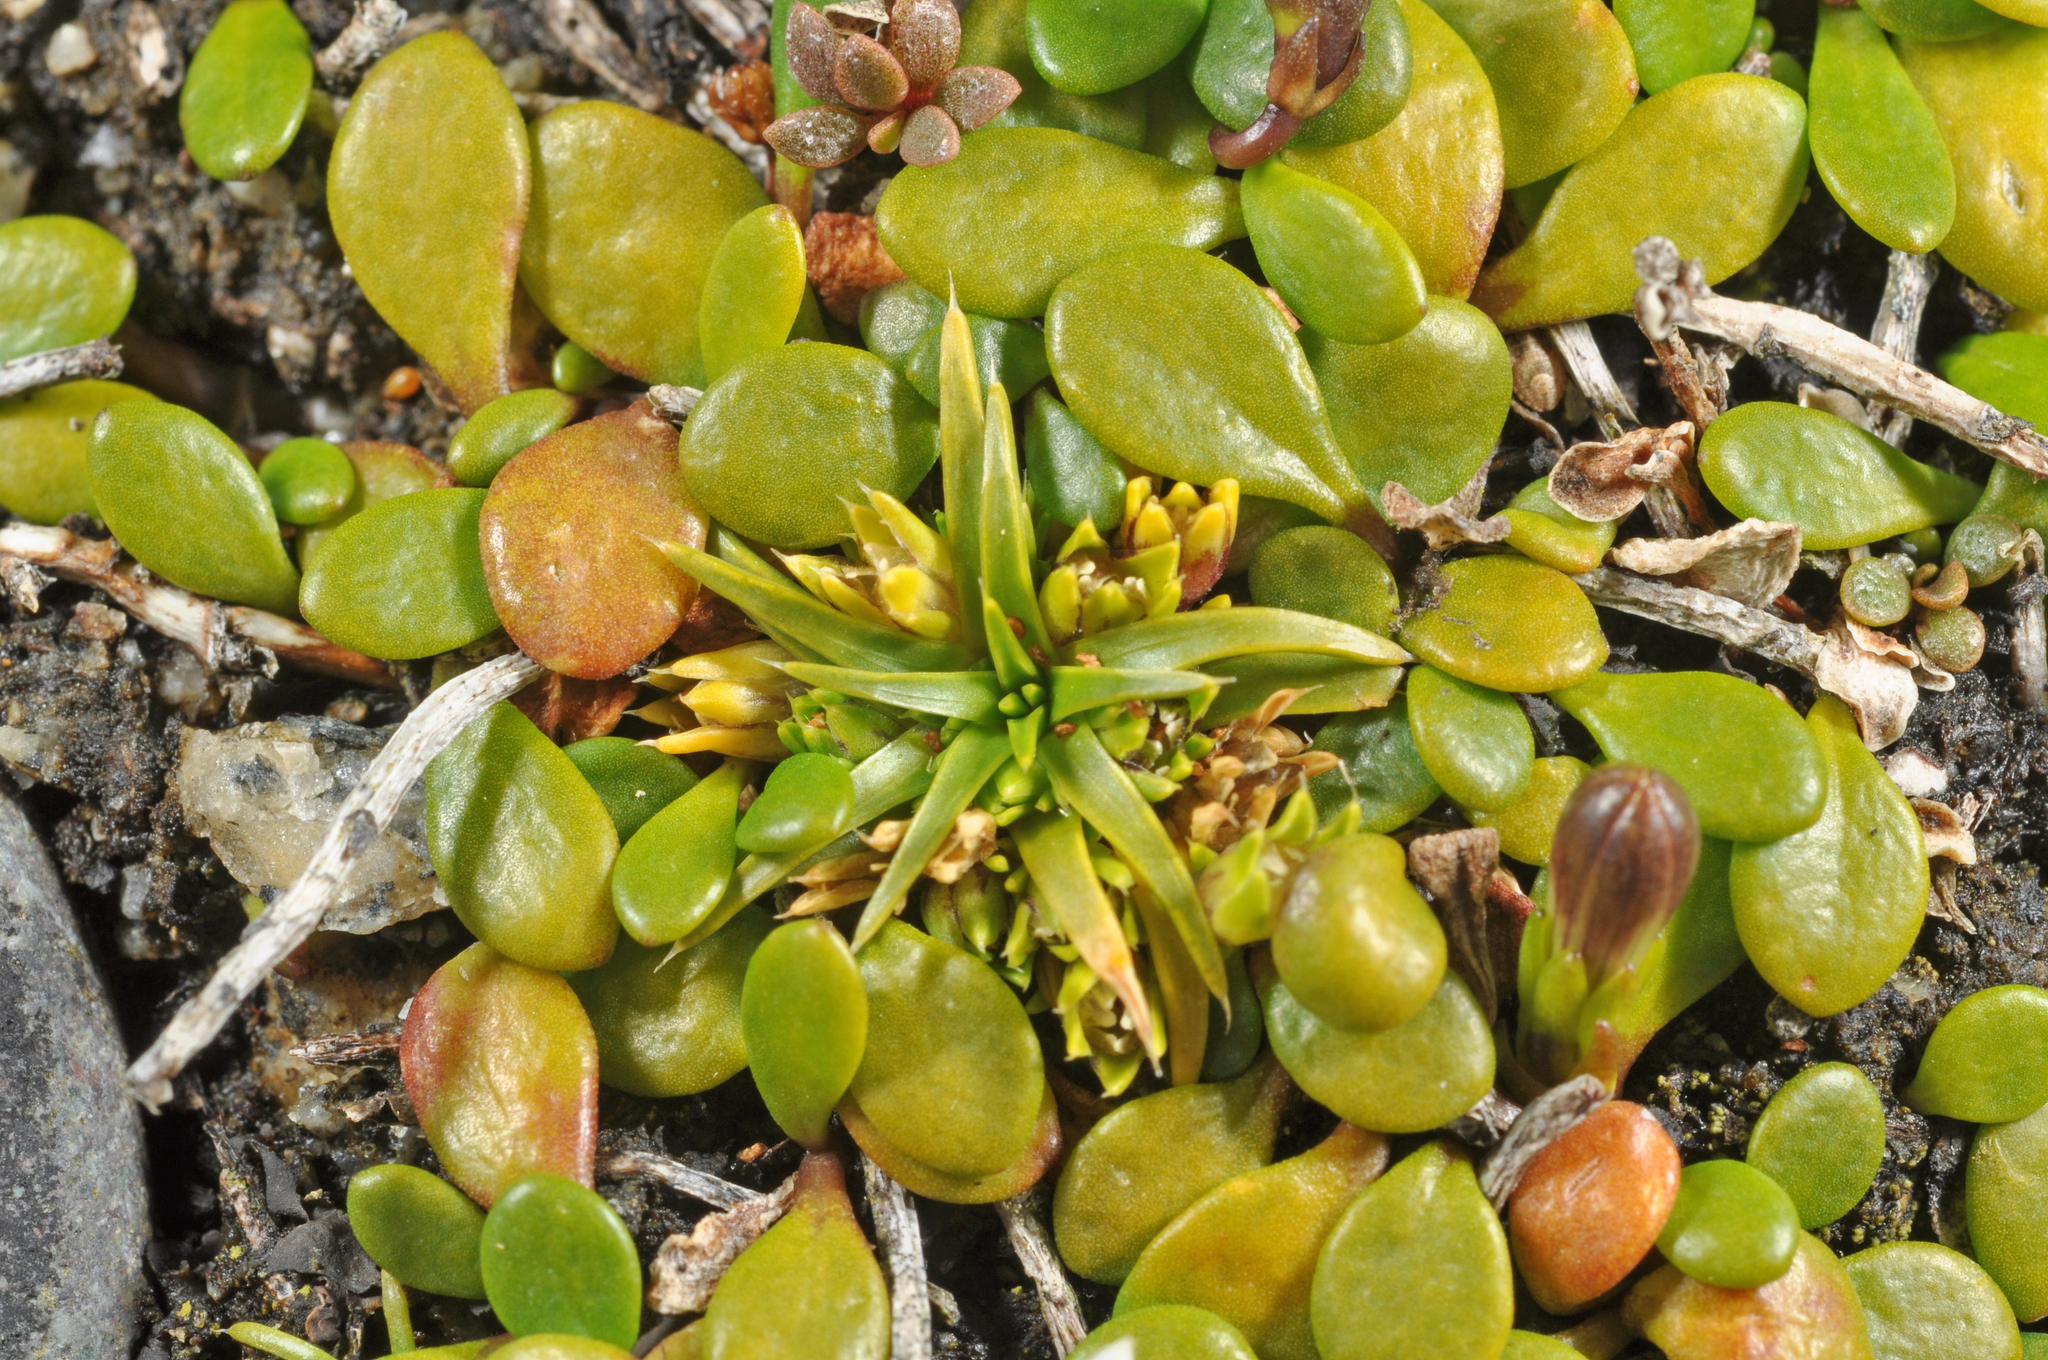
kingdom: Plantae
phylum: Tracheophyta
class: Magnoliopsida
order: Caryophyllales
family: Caryophyllaceae
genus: Colobanthus
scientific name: Colobanthus muelleri
